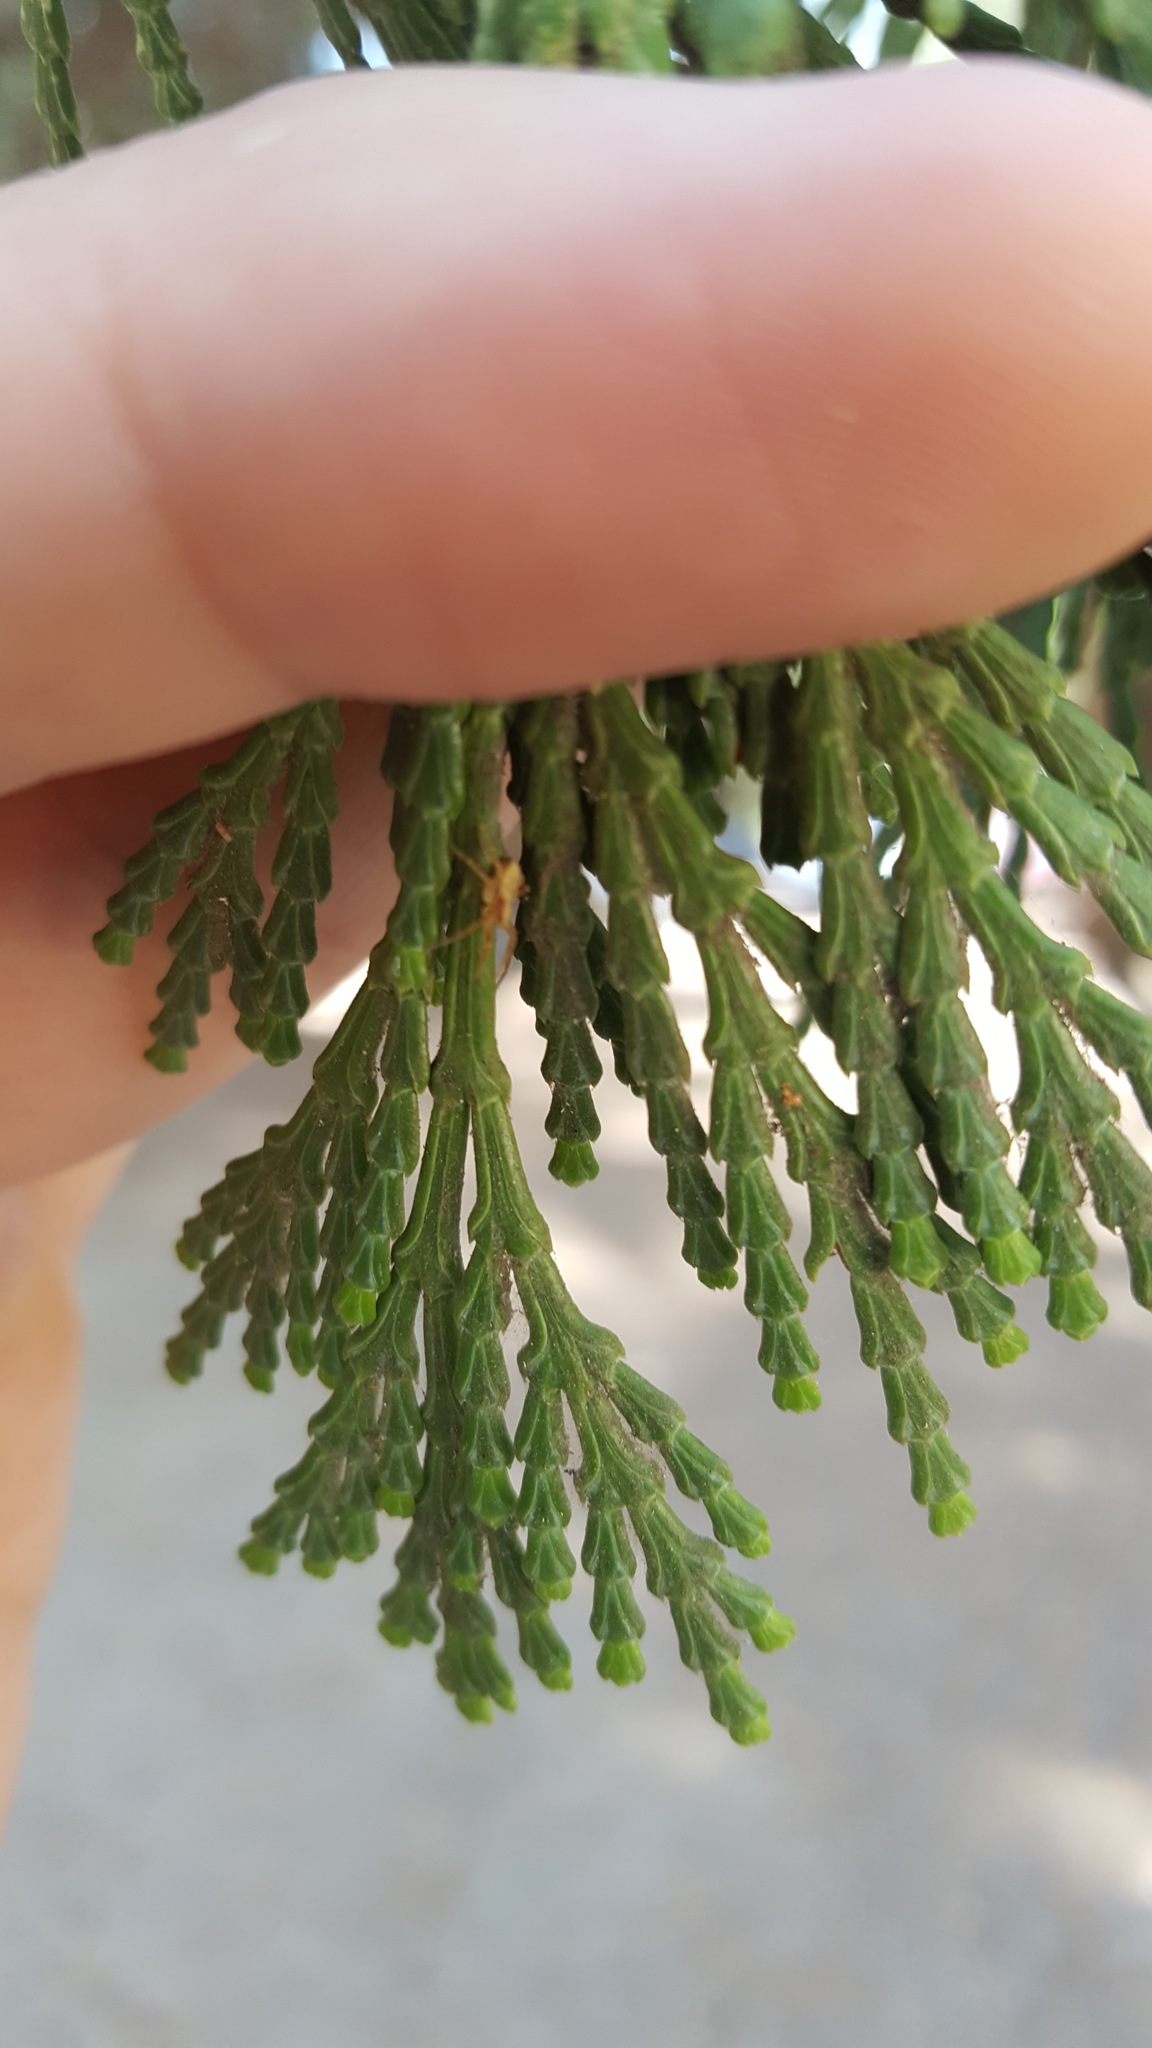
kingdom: Plantae
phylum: Tracheophyta
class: Pinopsida
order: Pinales
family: Cupressaceae
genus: Calocedrus
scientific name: Calocedrus decurrens
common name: Californian incense-cedar
